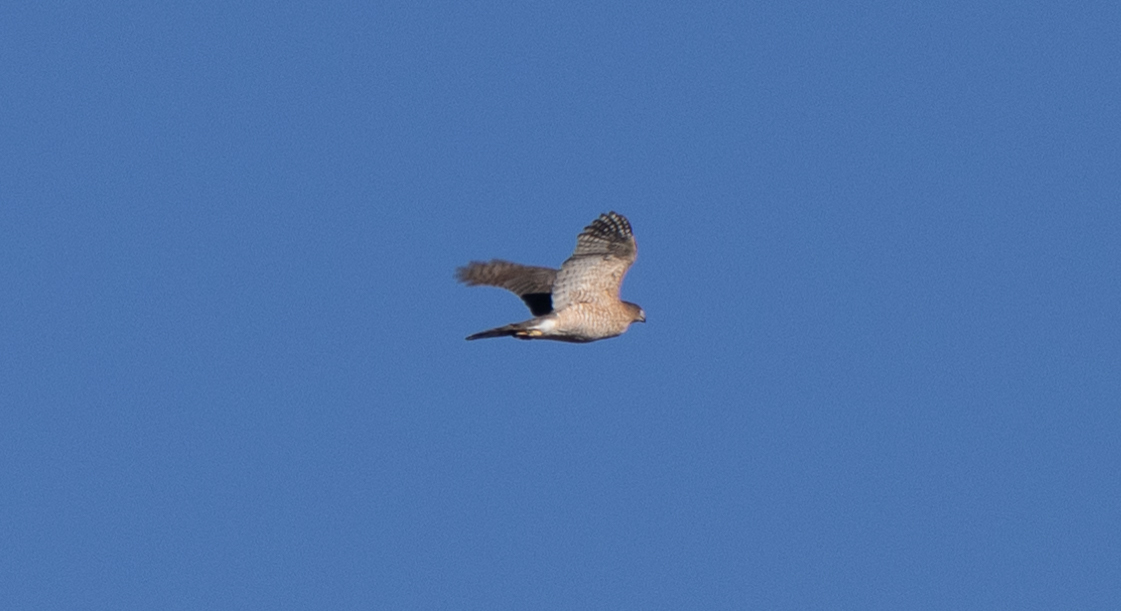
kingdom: Animalia
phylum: Chordata
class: Aves
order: Accipitriformes
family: Accipitridae
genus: Accipiter
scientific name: Accipiter cooperii
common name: Cooper's hawk
